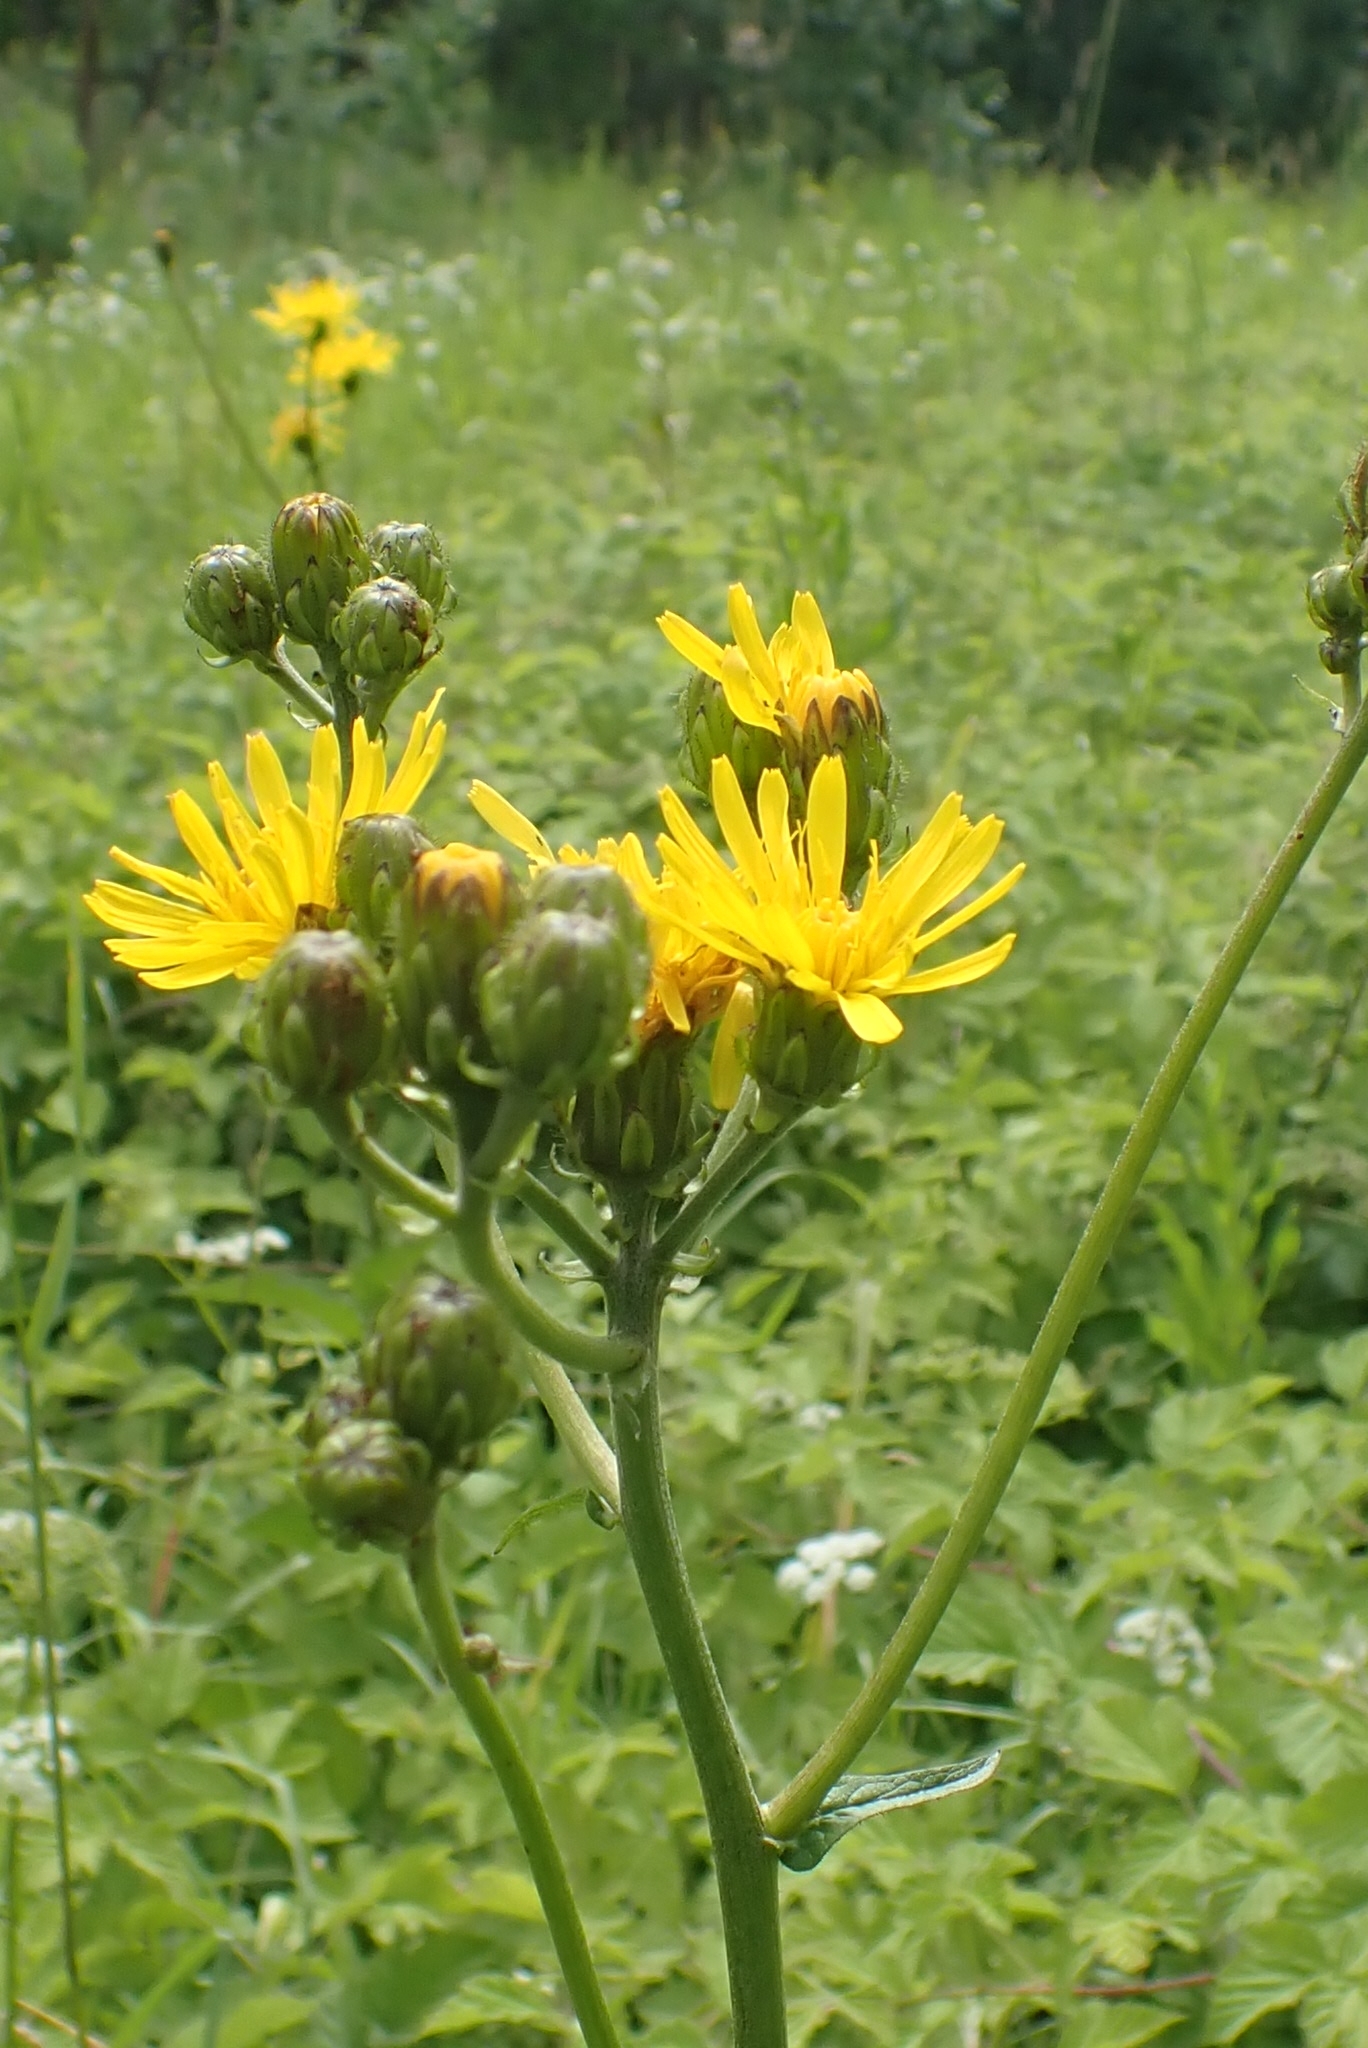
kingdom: Plantae
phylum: Tracheophyta
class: Magnoliopsida
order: Asterales
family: Asteraceae
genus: Crepis
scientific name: Crepis sibirica
